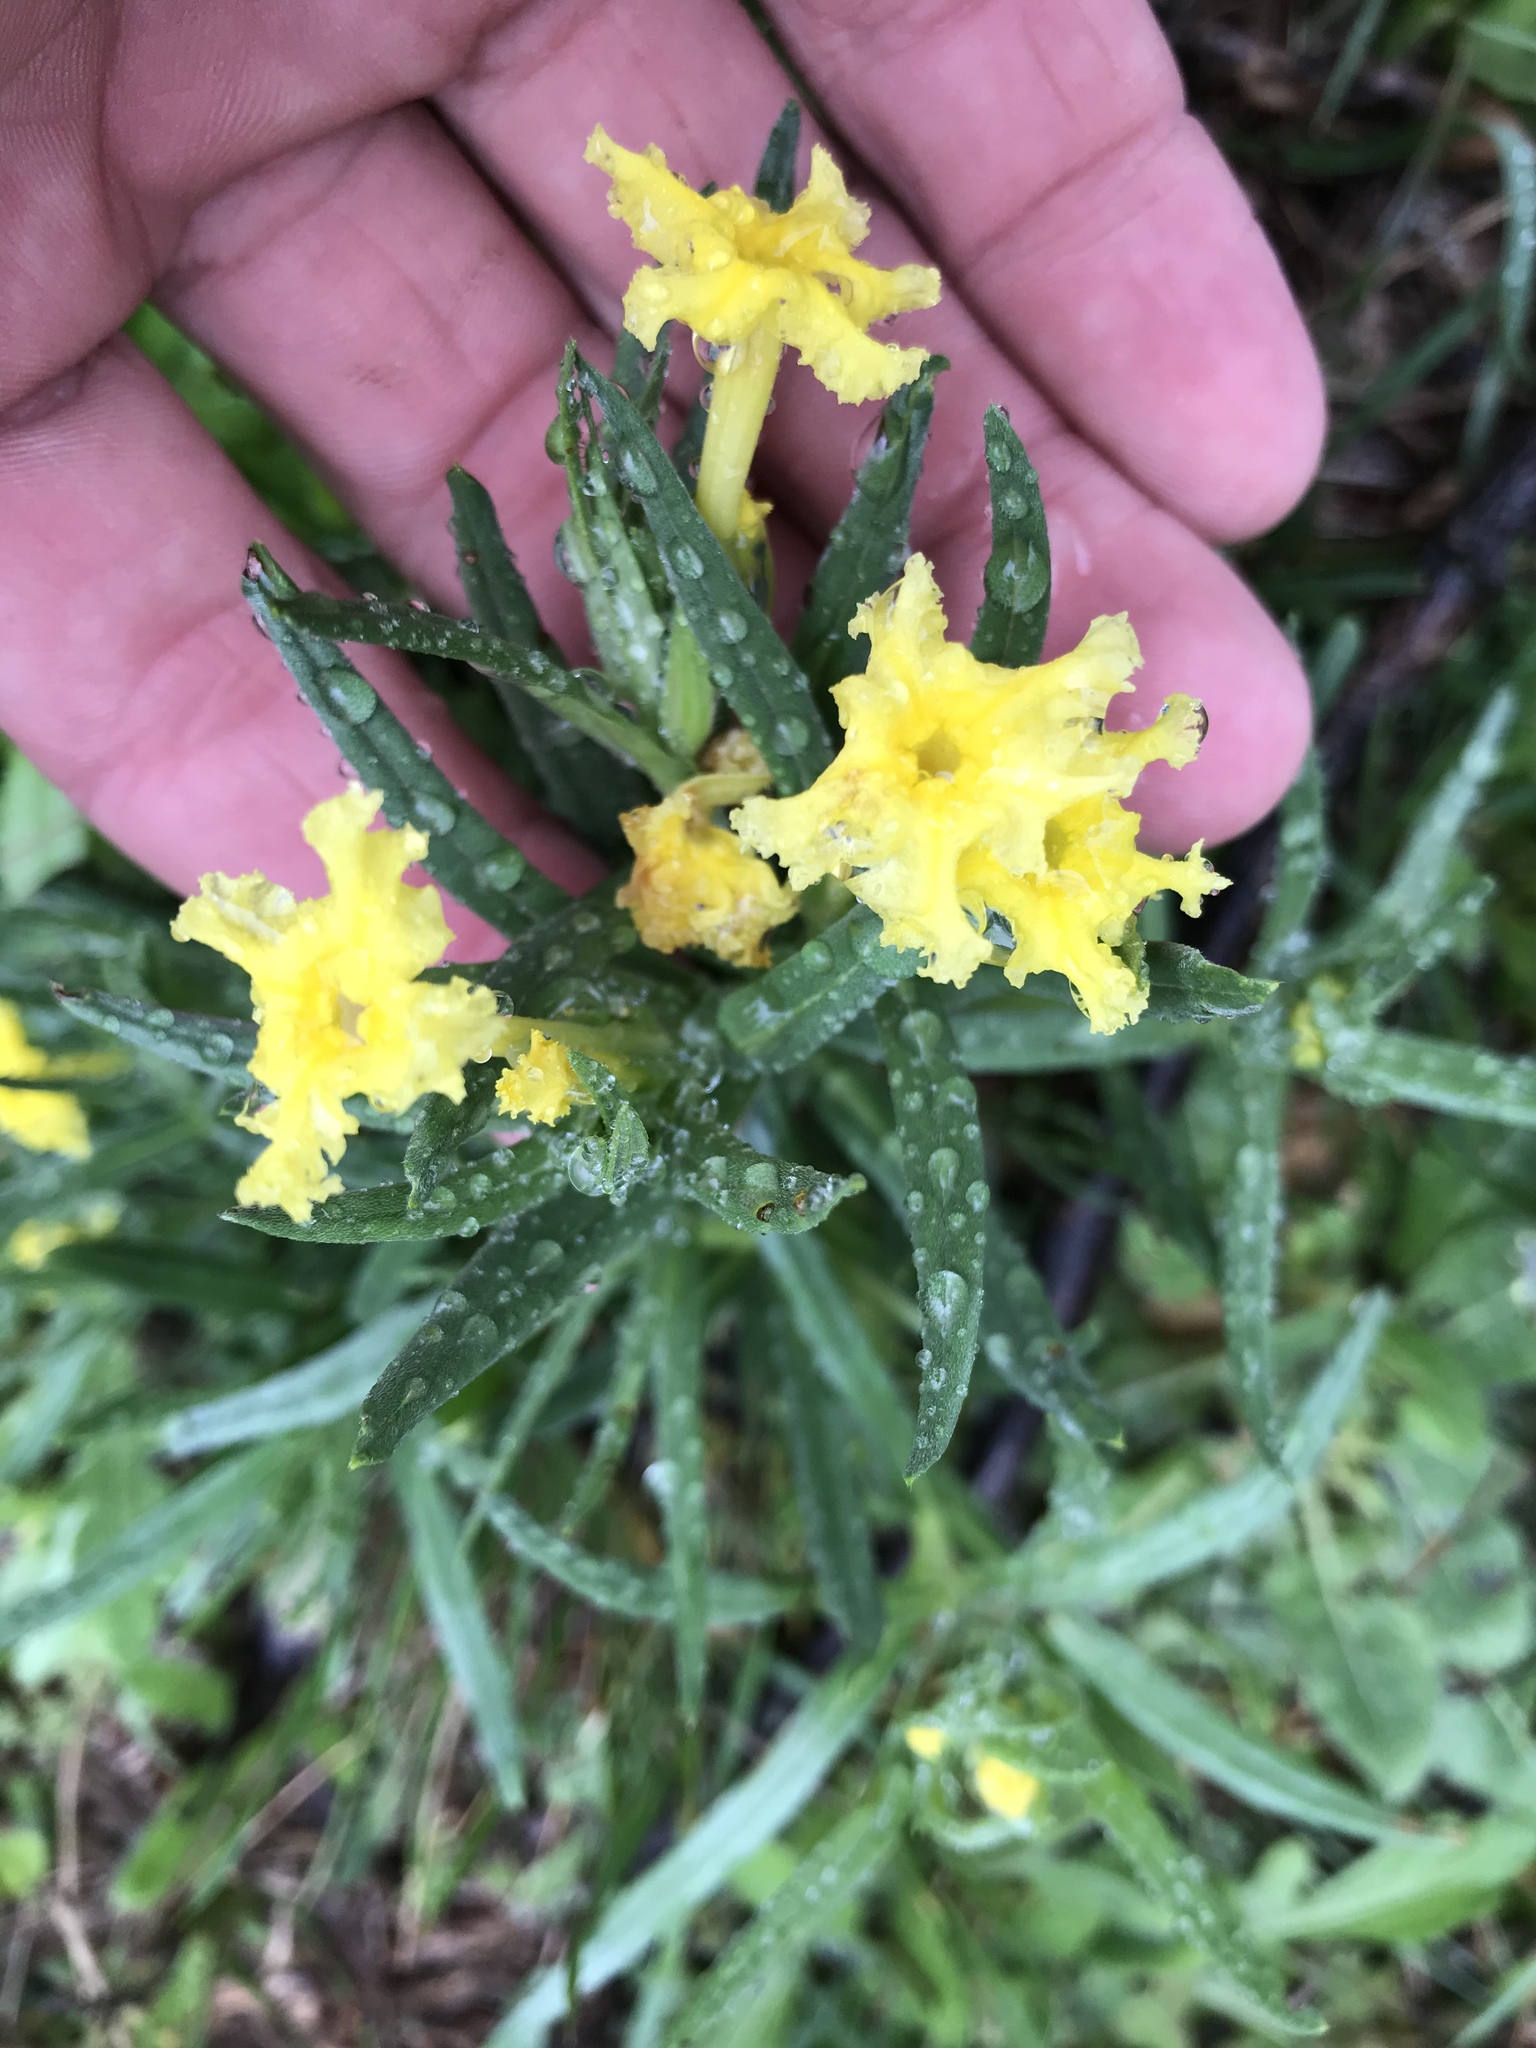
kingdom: Plantae
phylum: Tracheophyta
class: Magnoliopsida
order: Boraginales
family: Boraginaceae
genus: Lithospermum
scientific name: Lithospermum incisum
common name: Fringed gromwell
